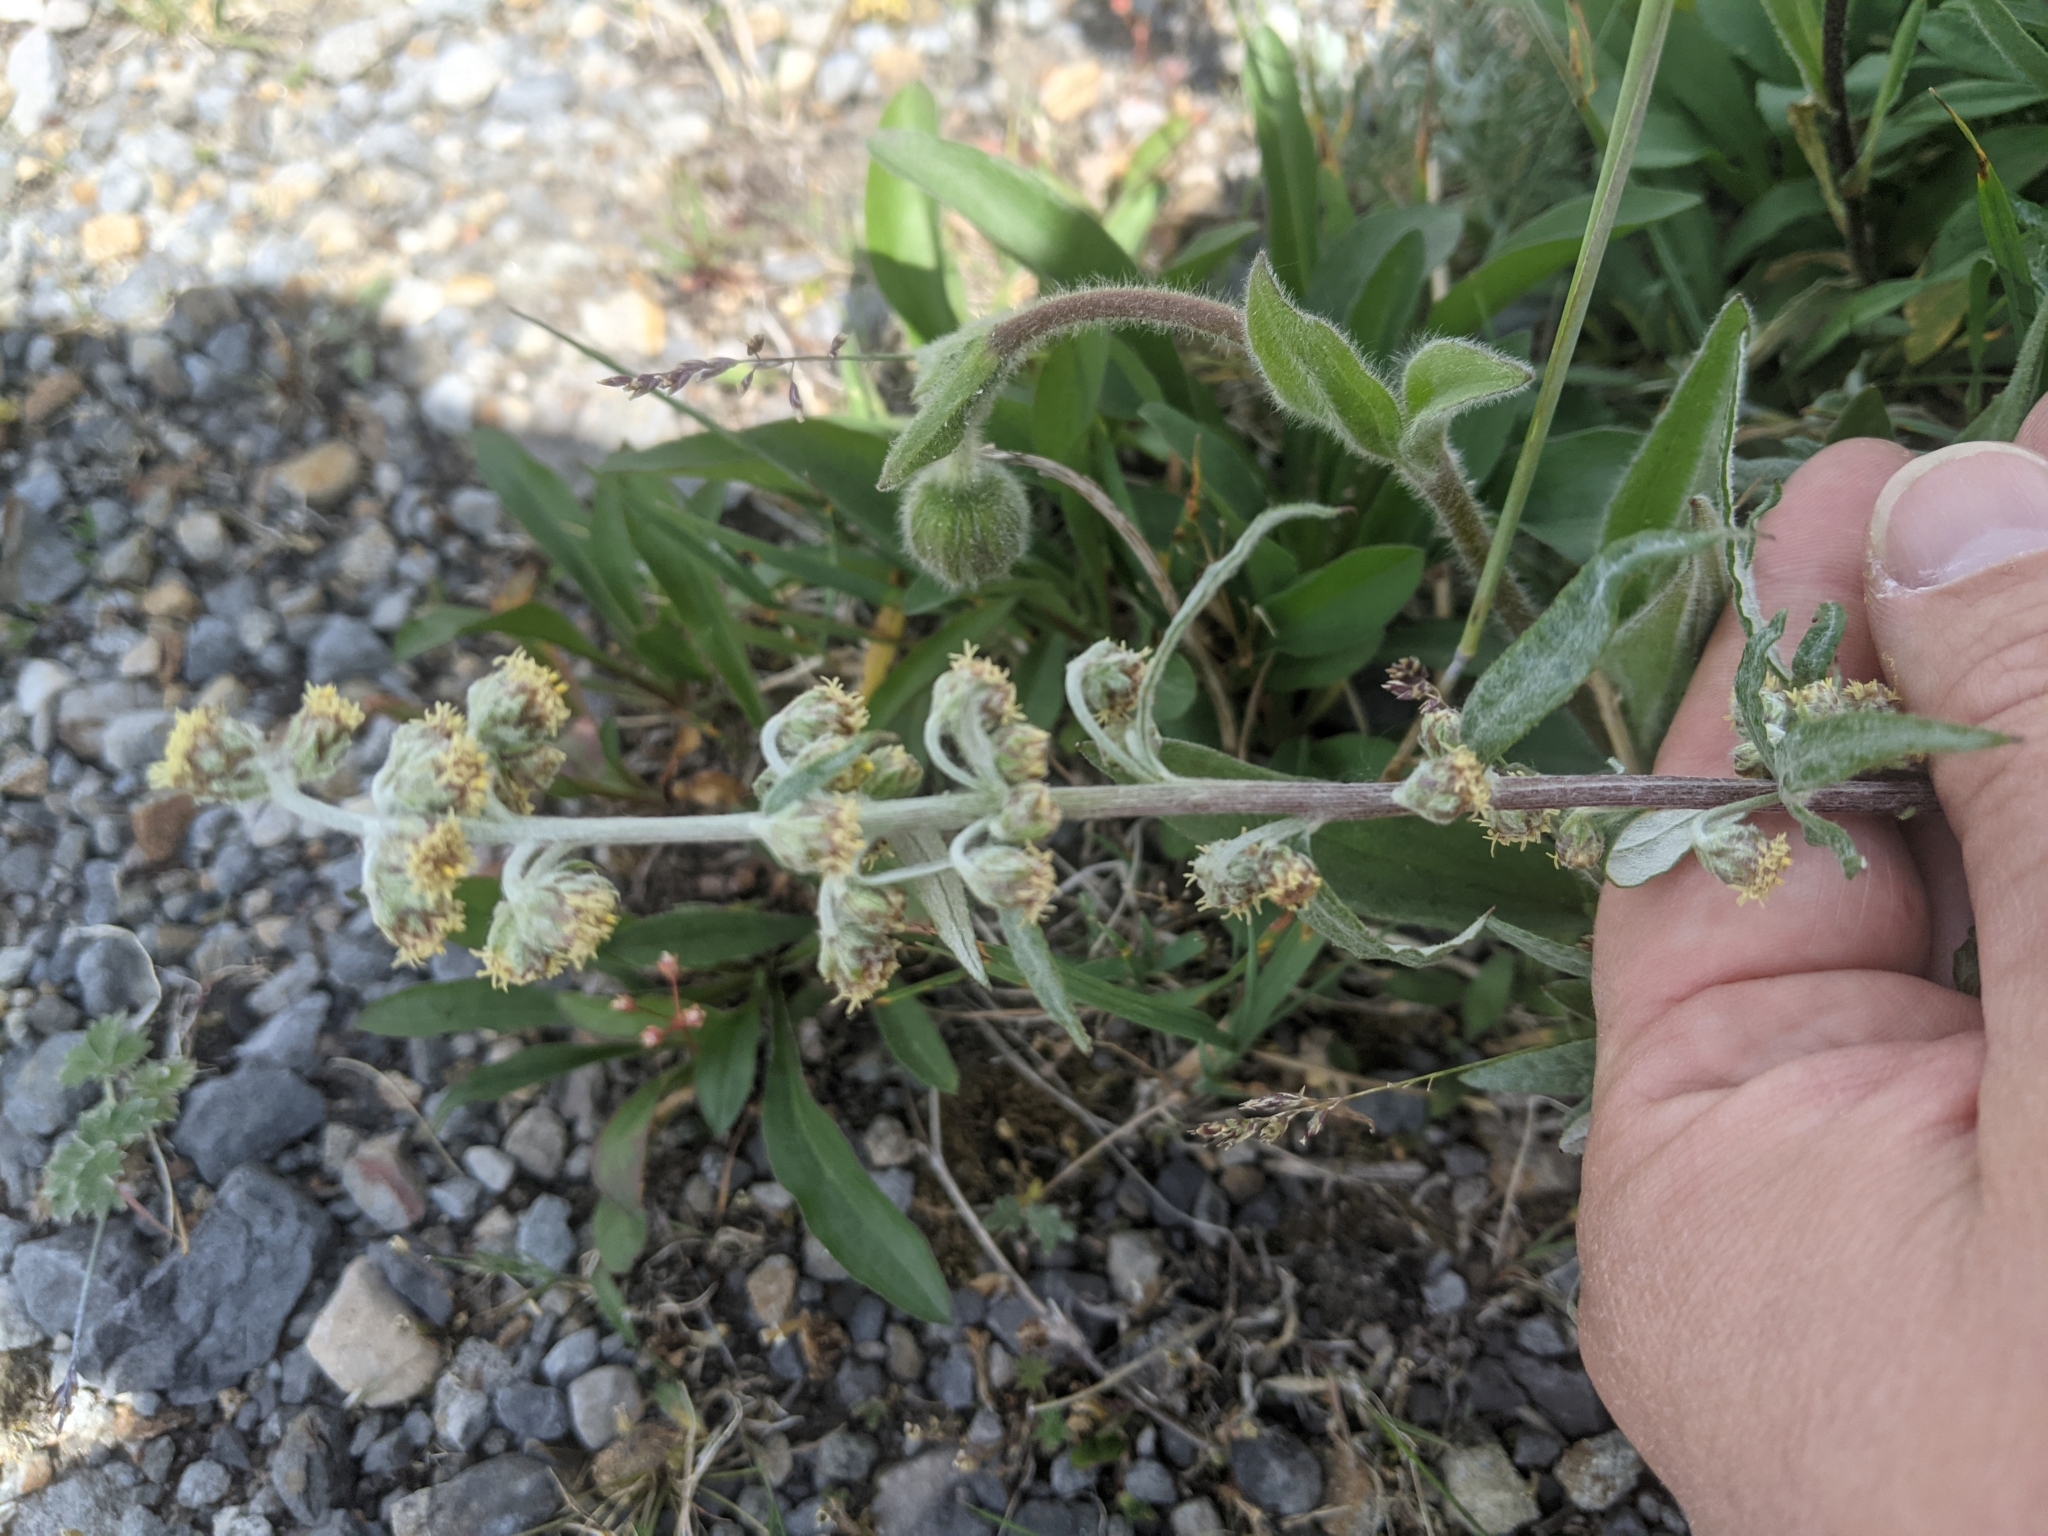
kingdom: Plantae
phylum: Tracheophyta
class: Magnoliopsida
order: Asterales
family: Asteraceae
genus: Artemisia
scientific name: Artemisia tilesii
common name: Aleutian mugwort
